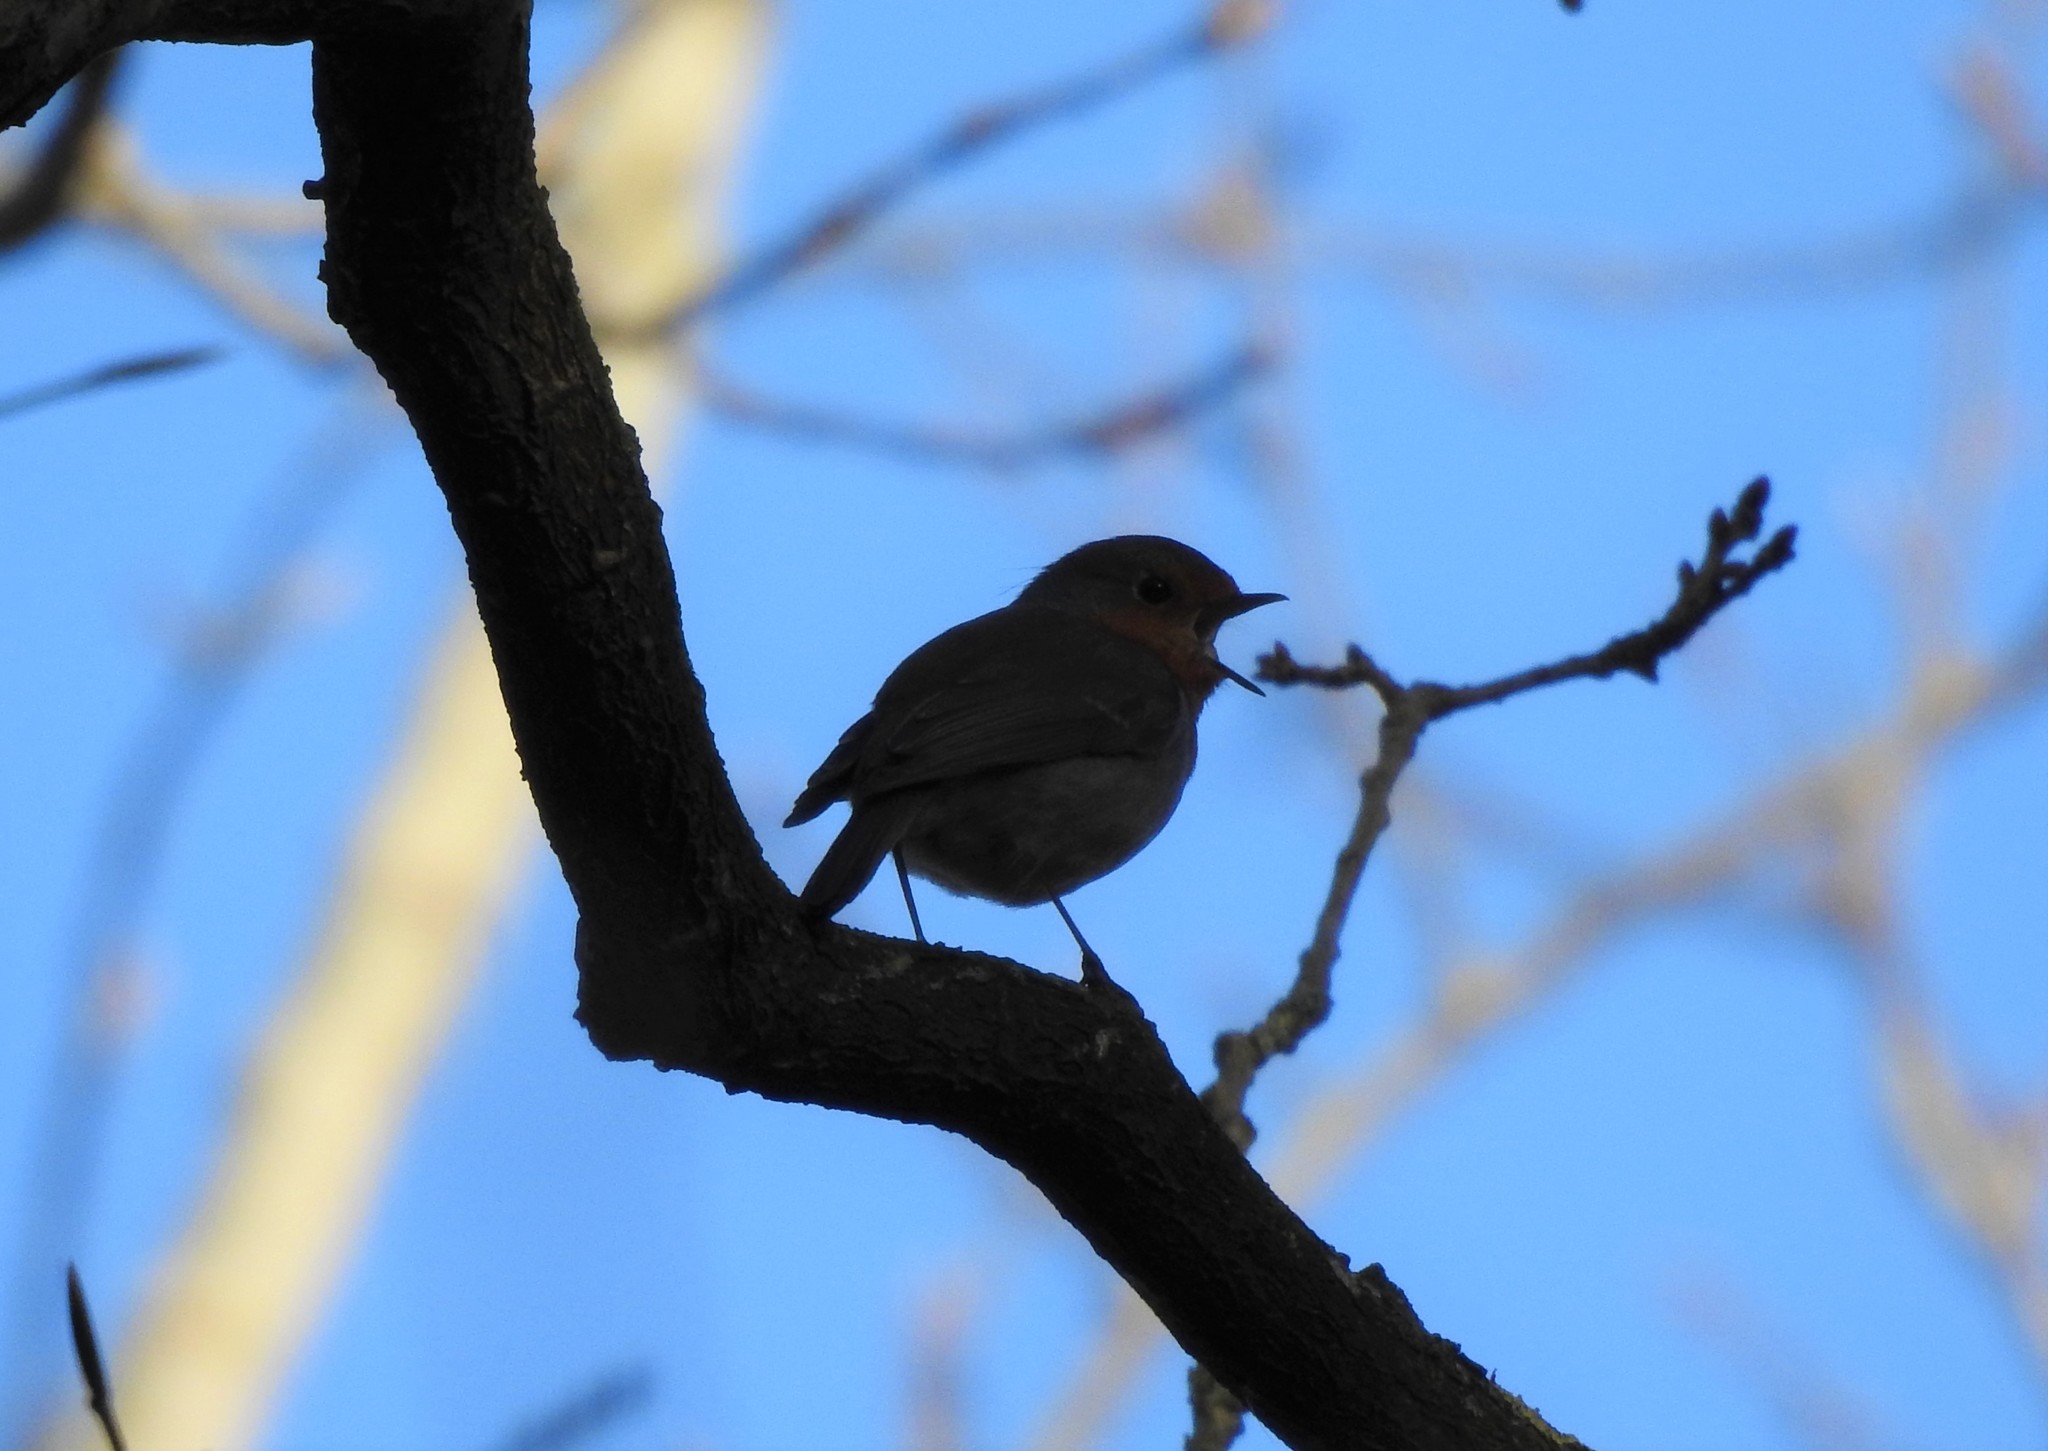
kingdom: Animalia
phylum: Chordata
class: Aves
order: Passeriformes
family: Muscicapidae
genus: Erithacus
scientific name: Erithacus rubecula
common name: European robin
